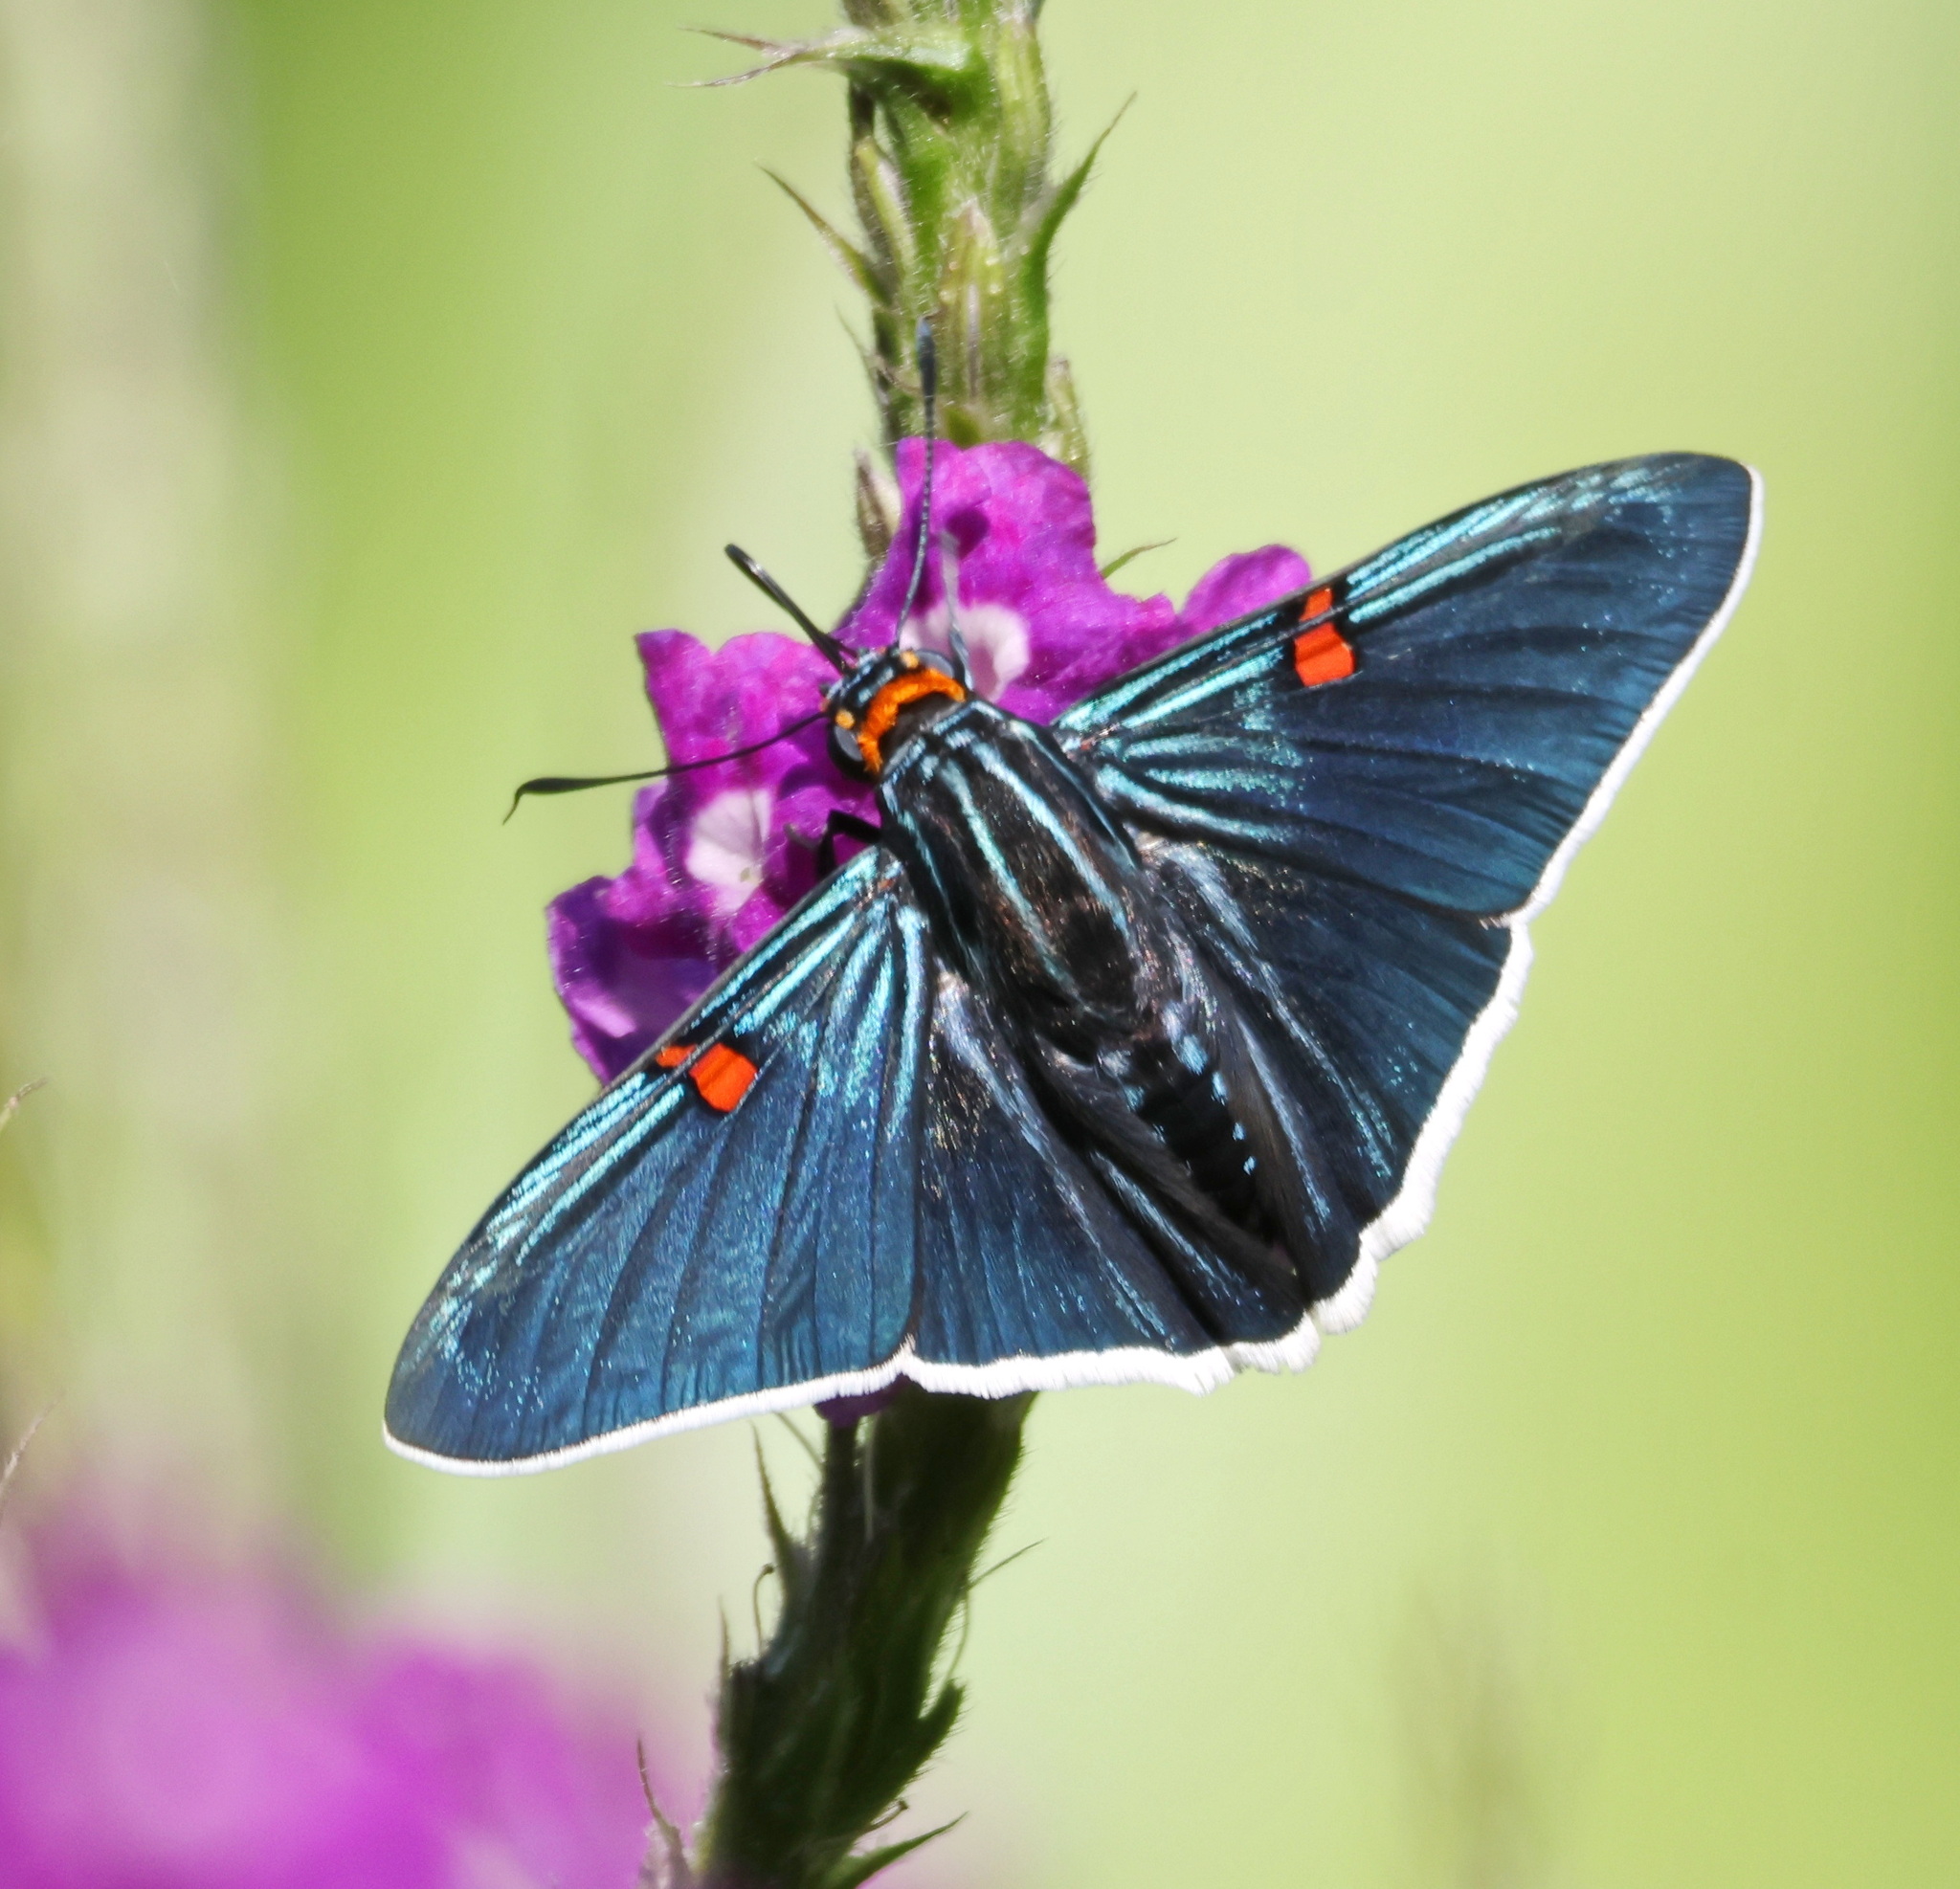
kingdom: Animalia
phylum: Arthropoda
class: Insecta
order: Lepidoptera
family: Hesperiidae
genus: Phocides
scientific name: Phocides lilea
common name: Guava skipper
